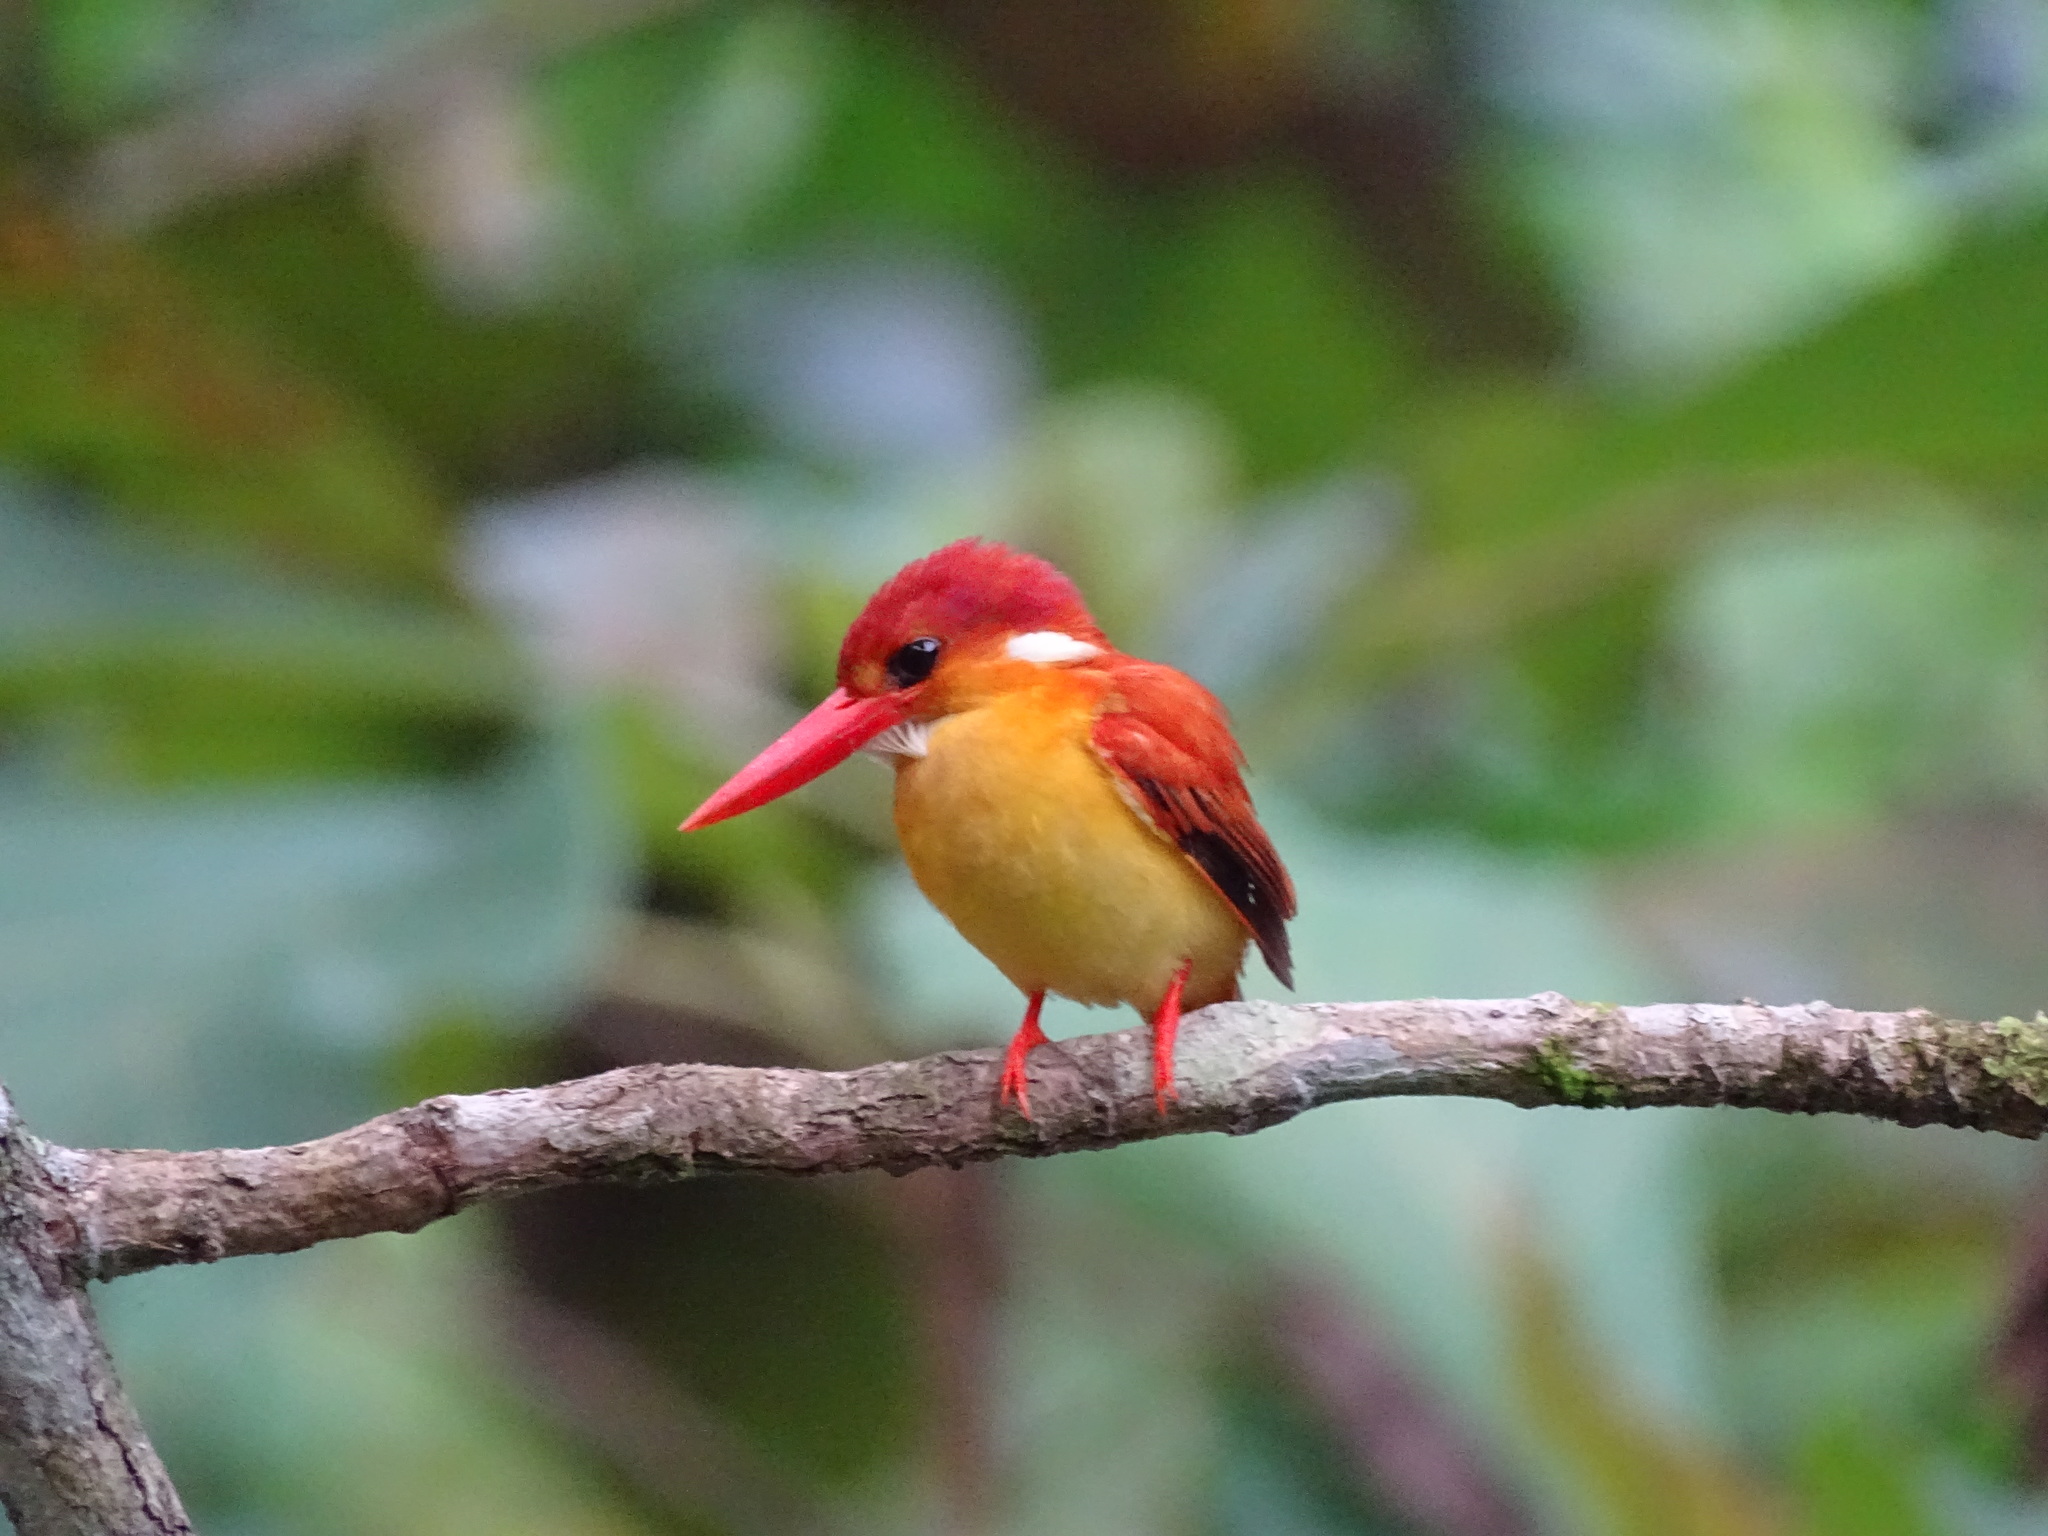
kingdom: Animalia
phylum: Chordata
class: Aves
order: Coraciiformes
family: Alcedinidae
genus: Ceyx
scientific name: Ceyx erithaca
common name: Oriental dwarf kingfisher
